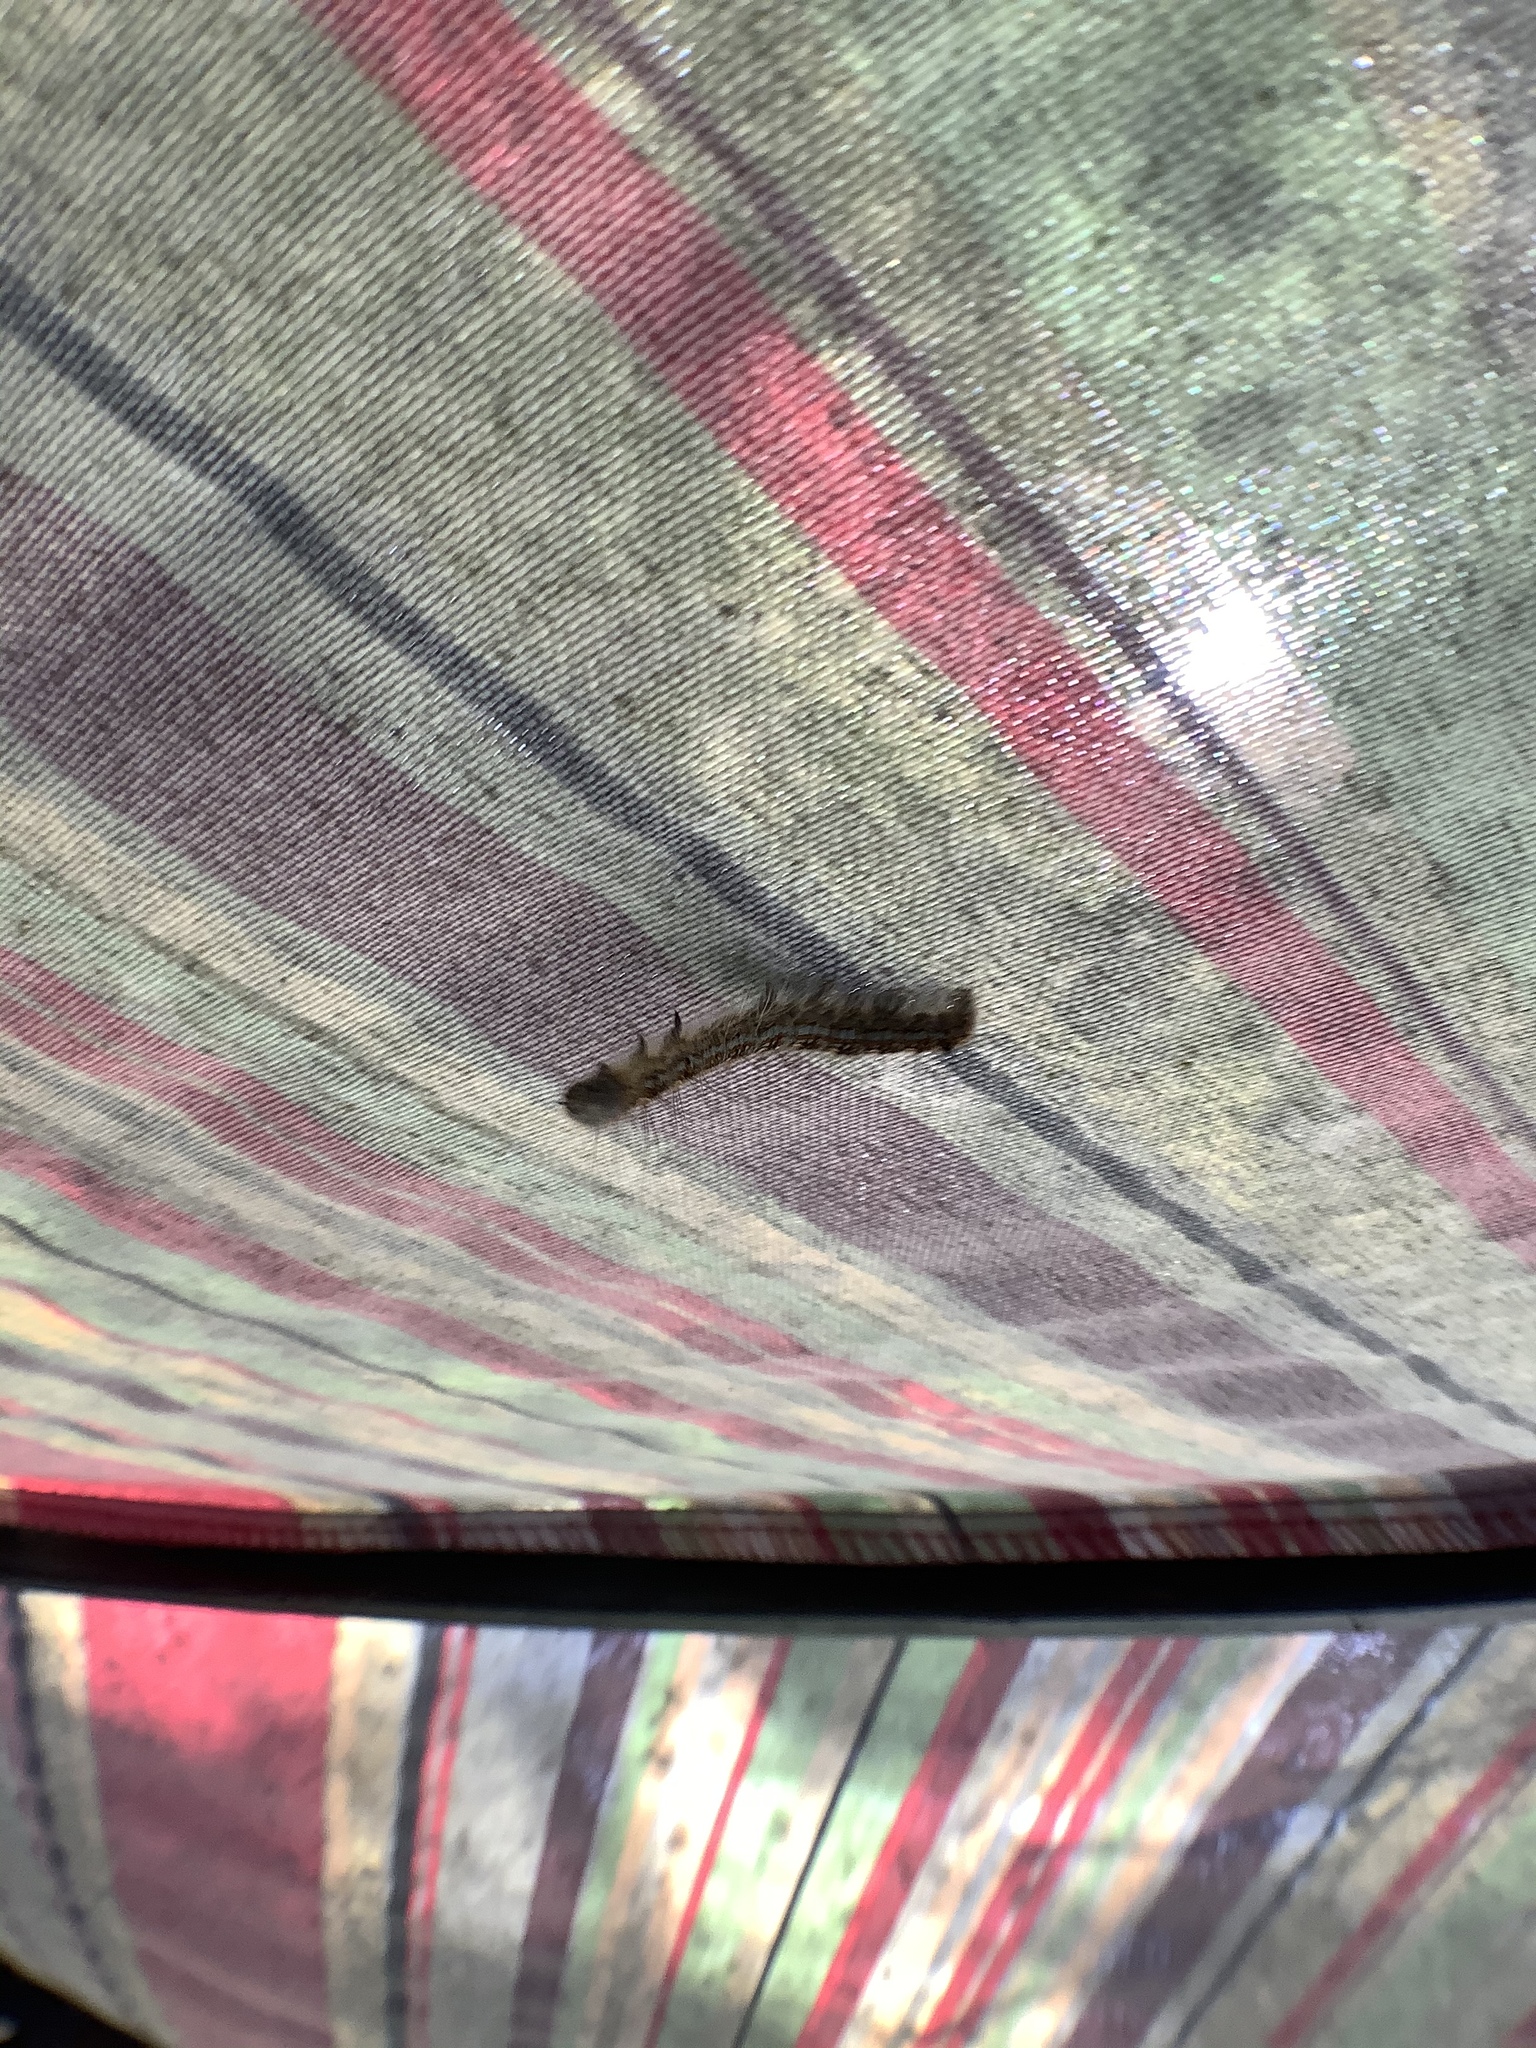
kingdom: Animalia
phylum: Arthropoda
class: Insecta
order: Lepidoptera
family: Lasiocampidae
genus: Malacosoma
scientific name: Malacosoma disstria
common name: Forest tent caterpillar
